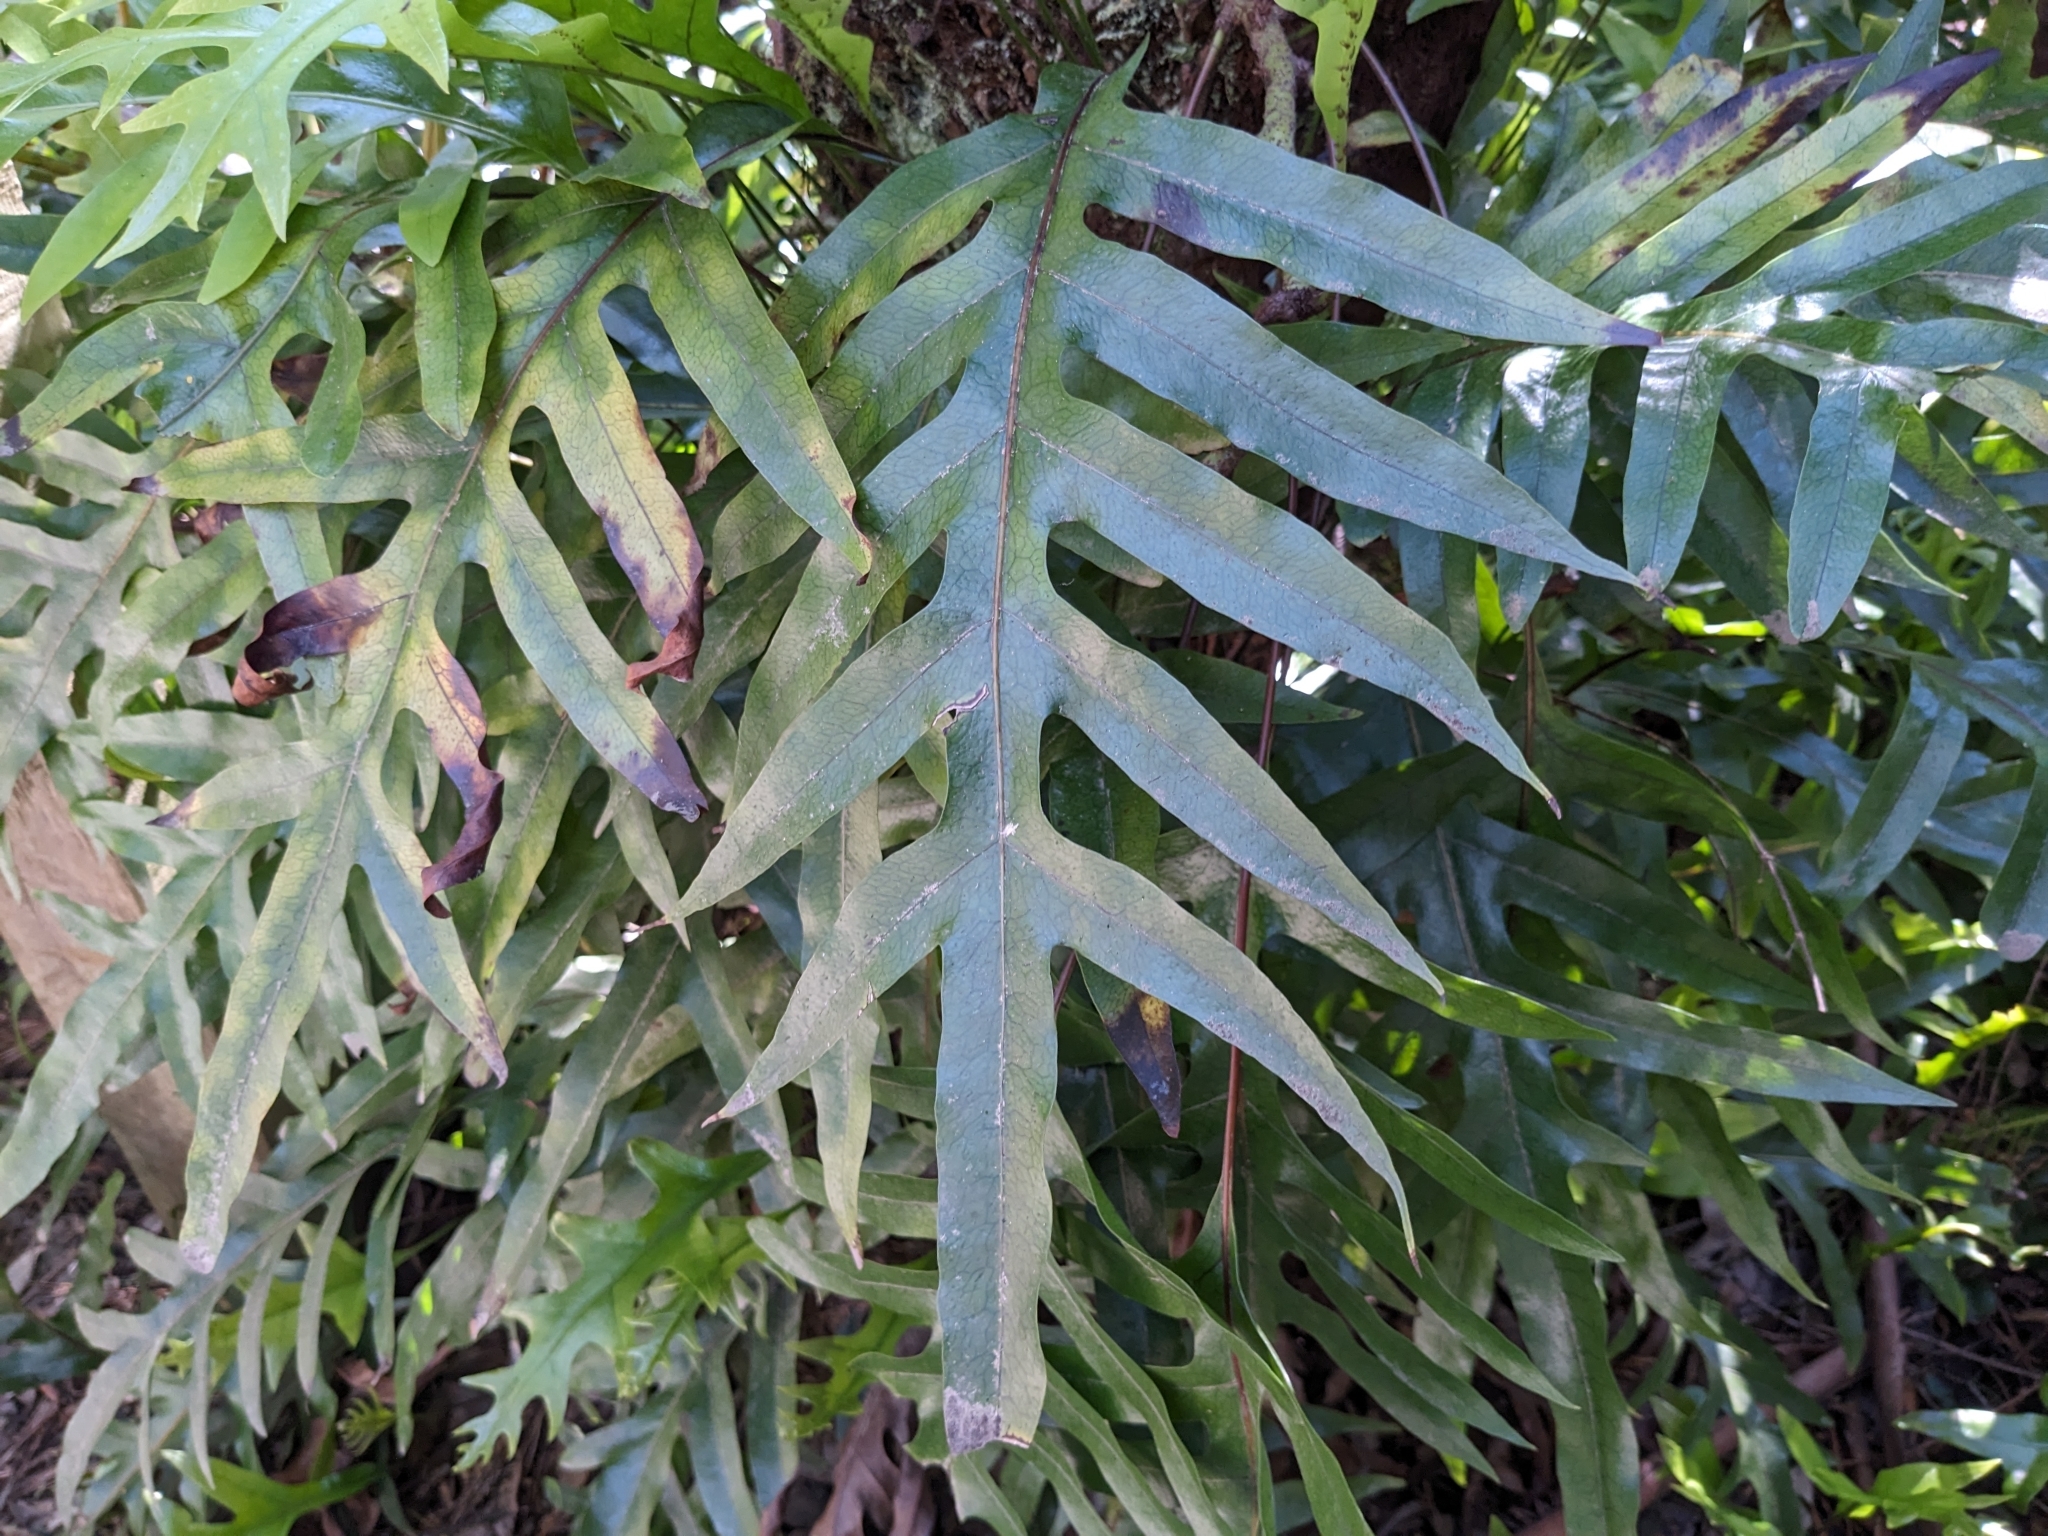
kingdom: Plantae
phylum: Tracheophyta
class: Polypodiopsida
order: Polypodiales
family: Polypodiaceae
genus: Lecanopteris
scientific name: Lecanopteris pustulata
